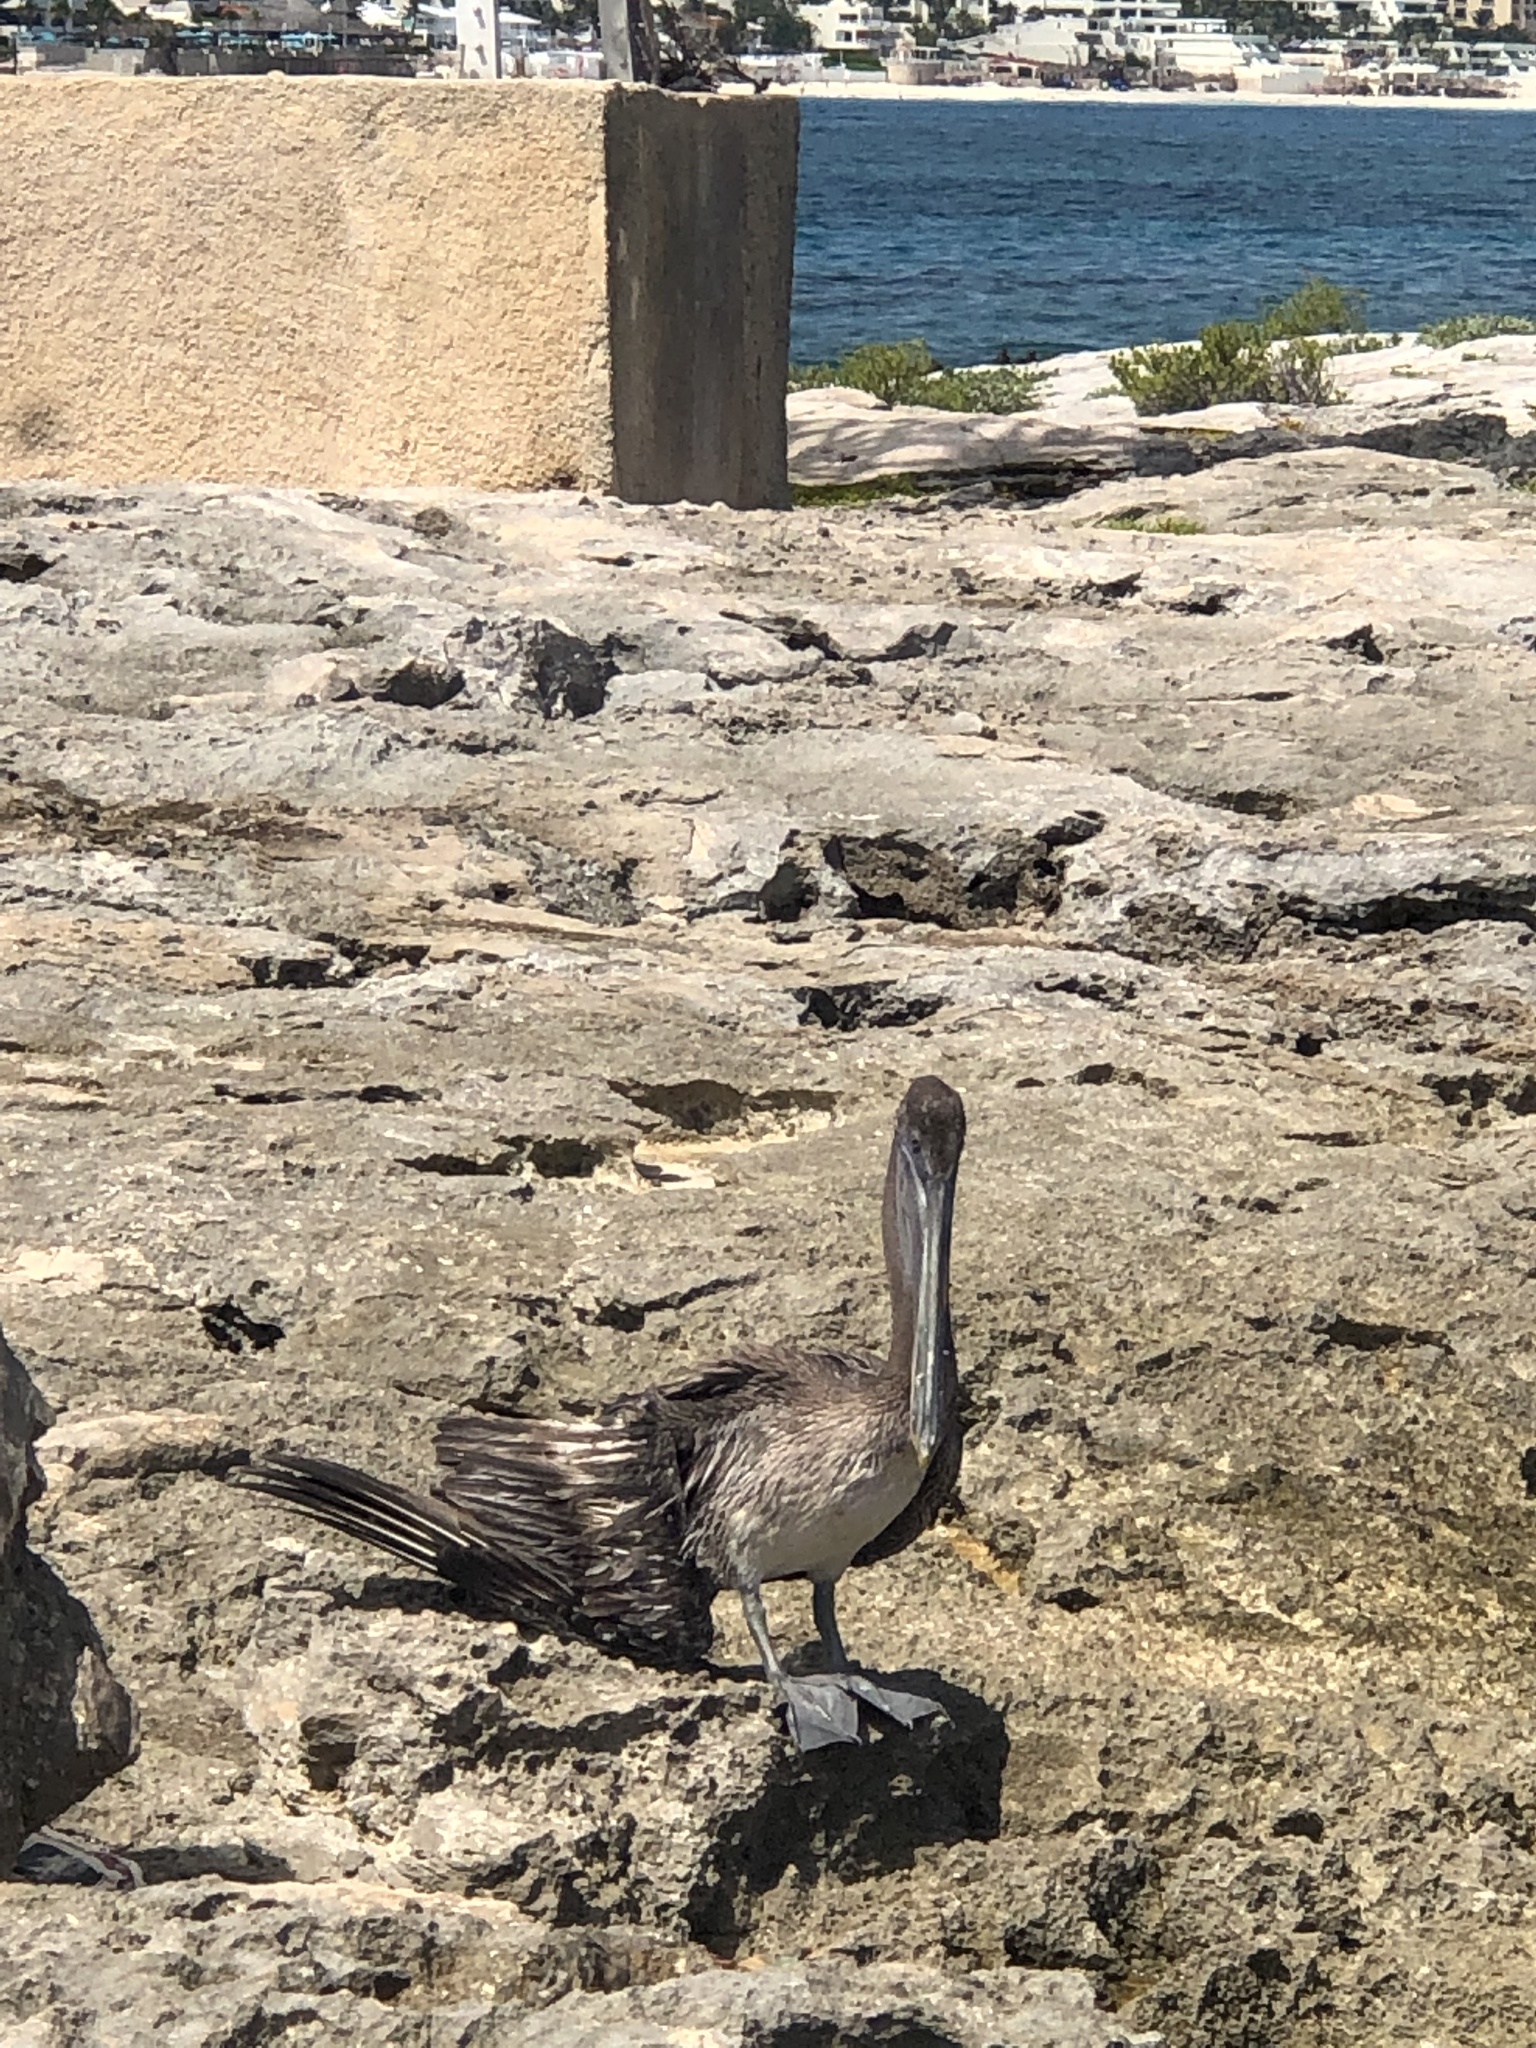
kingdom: Animalia
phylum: Chordata
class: Aves
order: Pelecaniformes
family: Pelecanidae
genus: Pelecanus
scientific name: Pelecanus occidentalis
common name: Brown pelican
